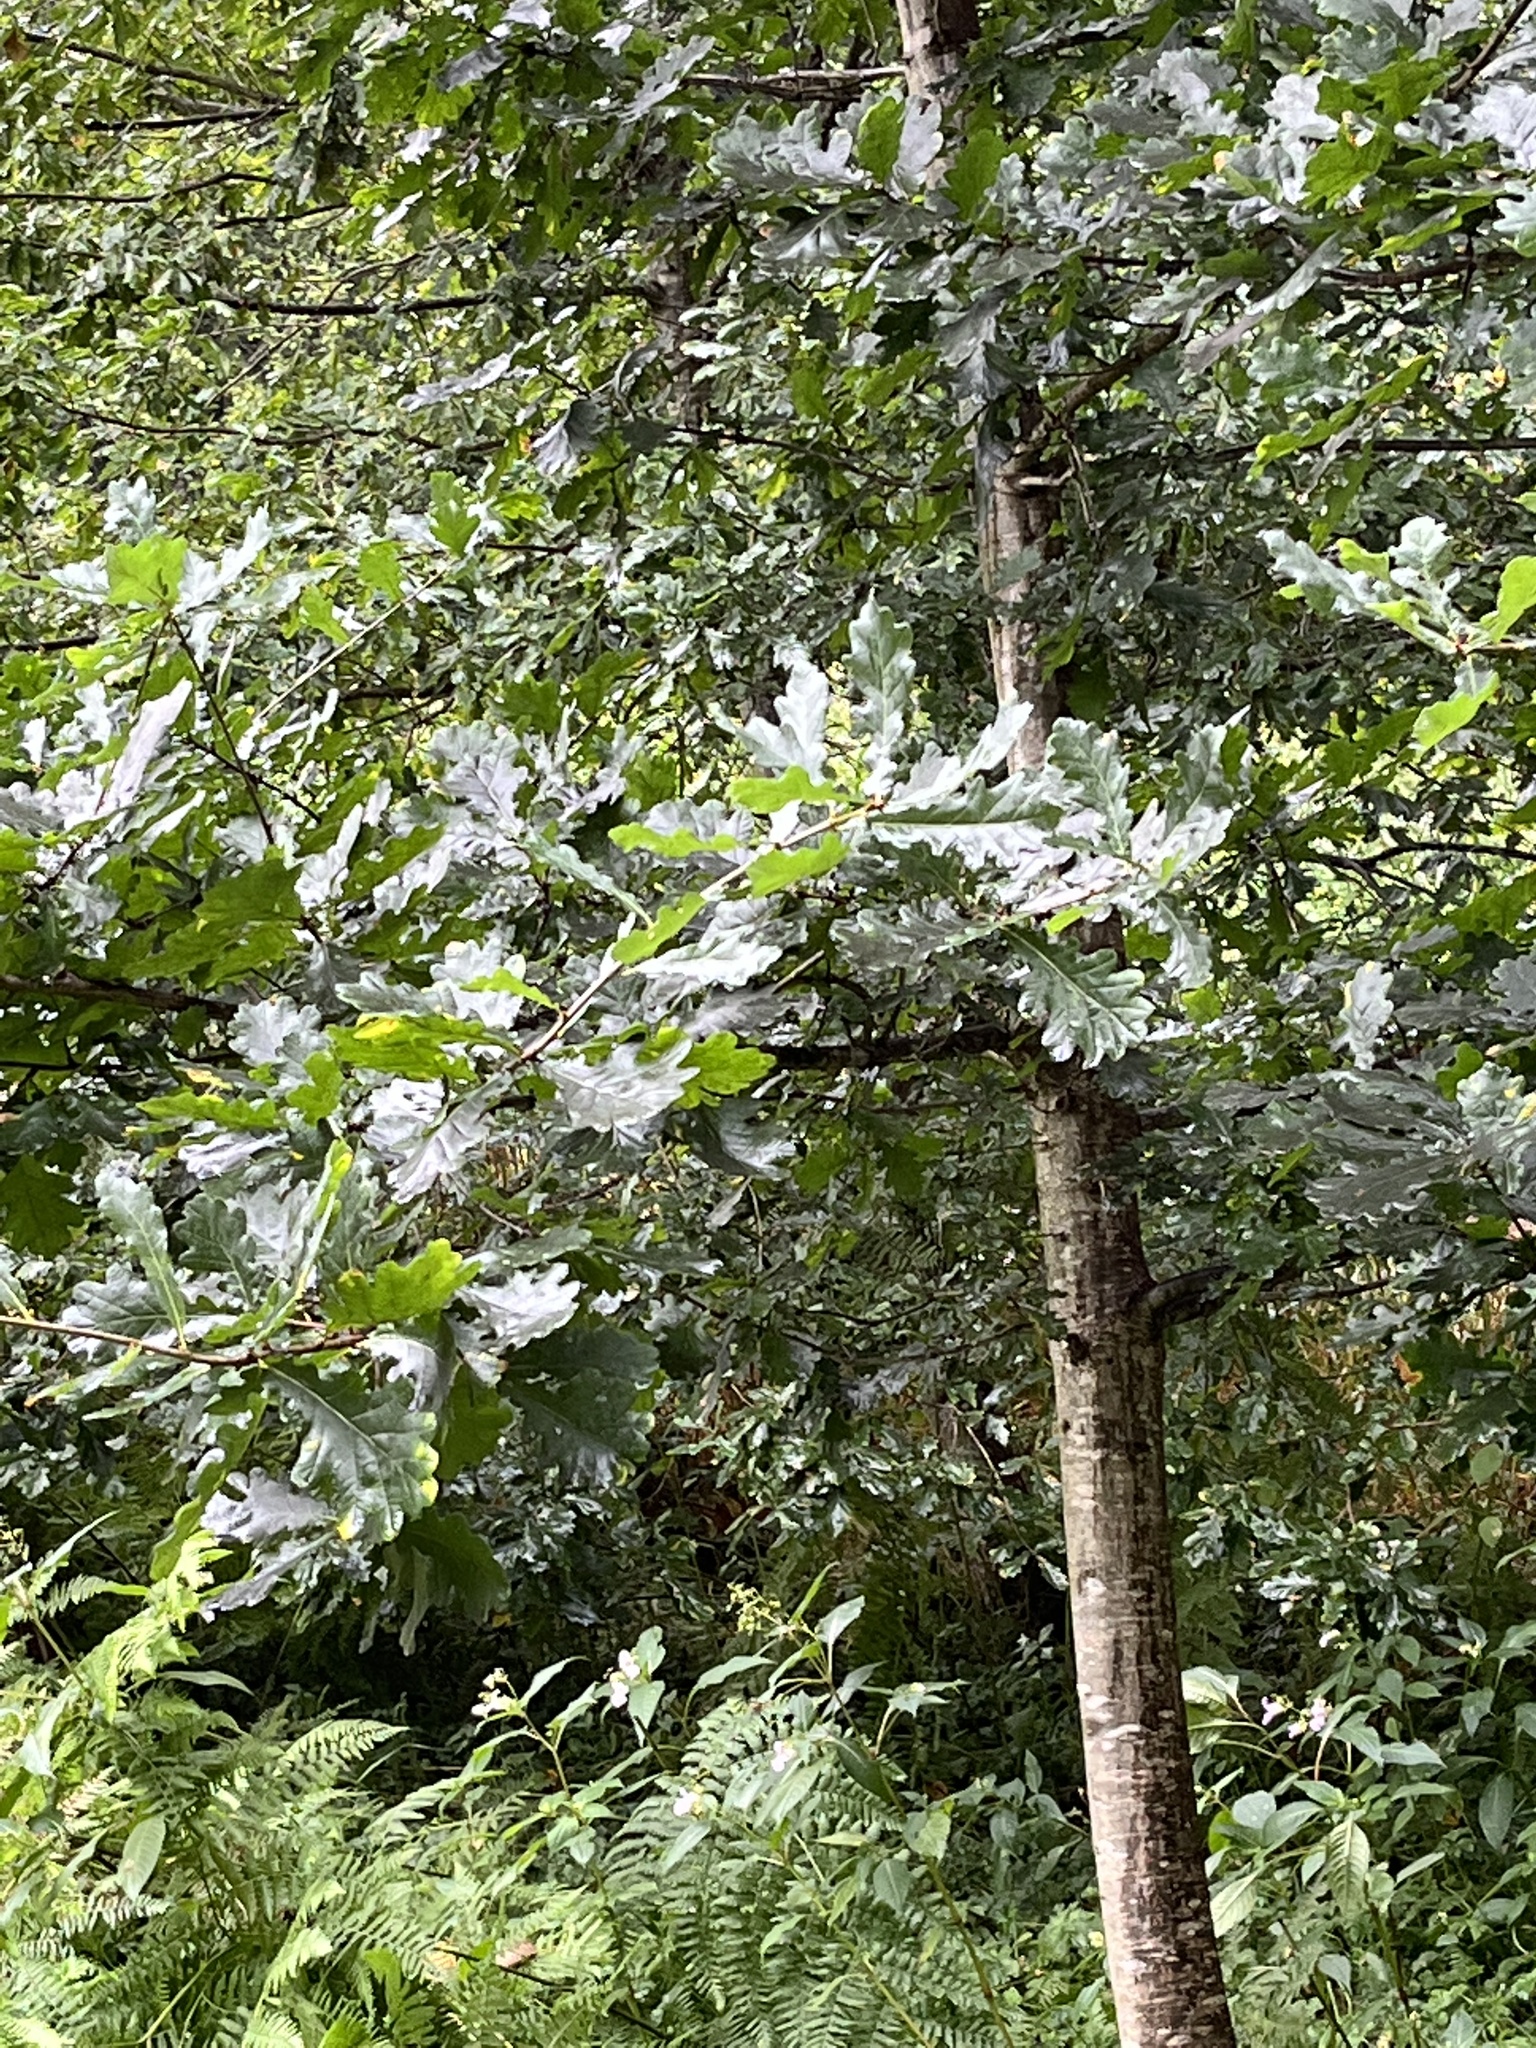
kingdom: Plantae
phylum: Tracheophyta
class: Magnoliopsida
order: Fagales
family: Fagaceae
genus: Quercus
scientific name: Quercus robur
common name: Pedunculate oak
